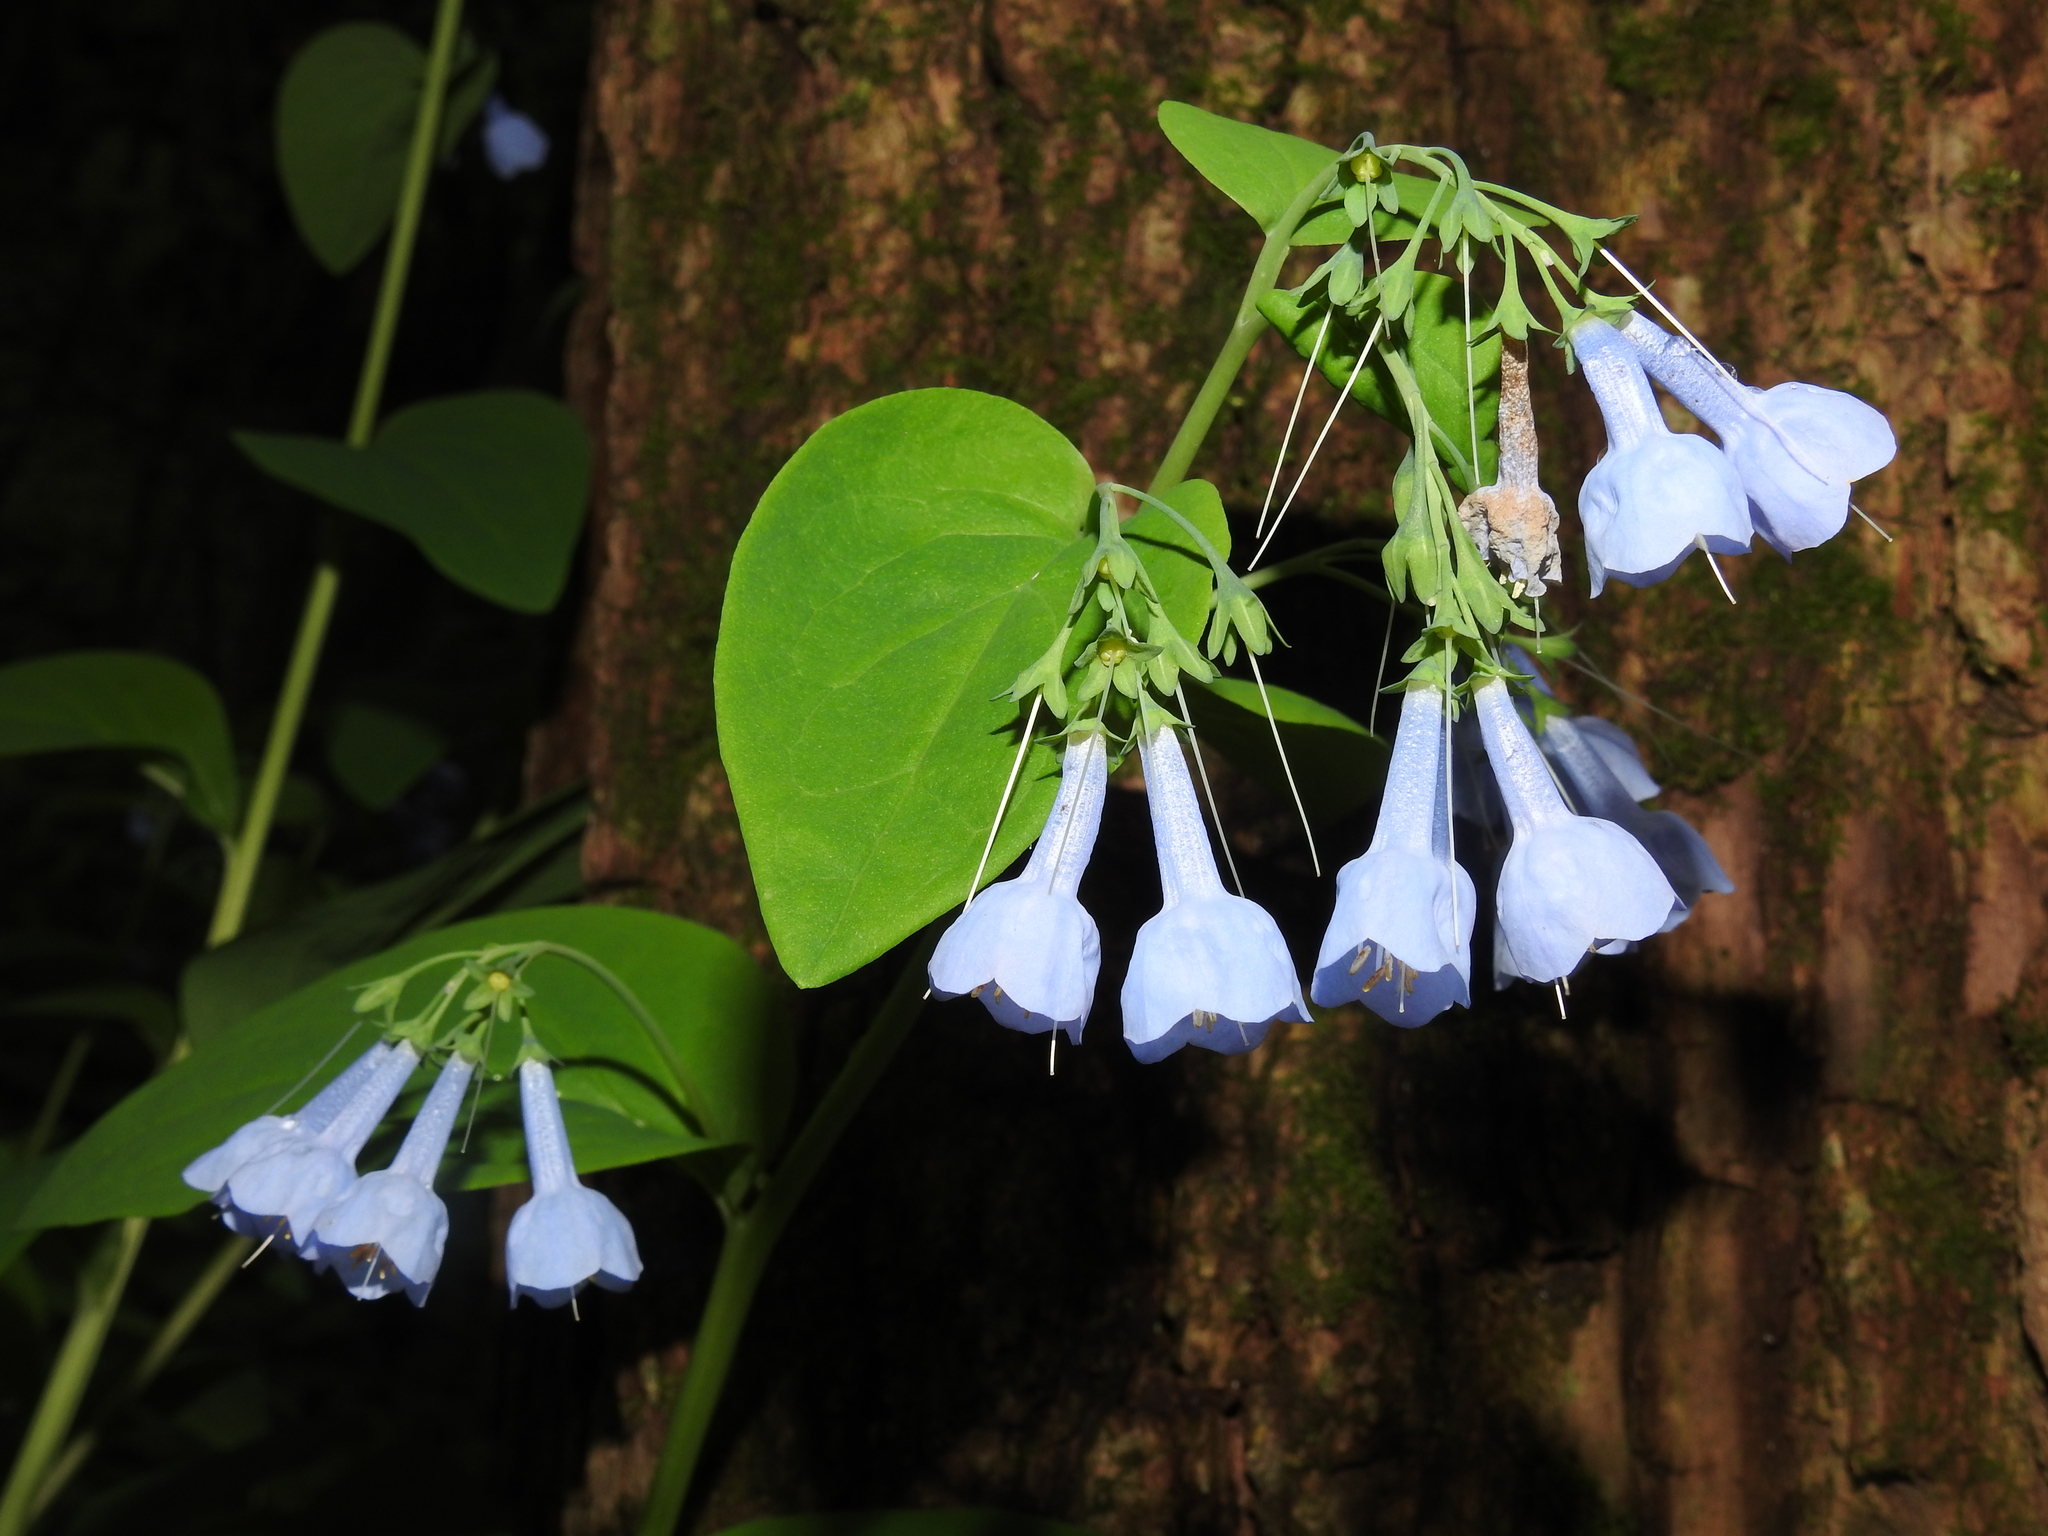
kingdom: Plantae
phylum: Tracheophyta
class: Magnoliopsida
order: Boraginales
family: Boraginaceae
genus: Mertensia
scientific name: Mertensia virginica
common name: Virginia bluebells
